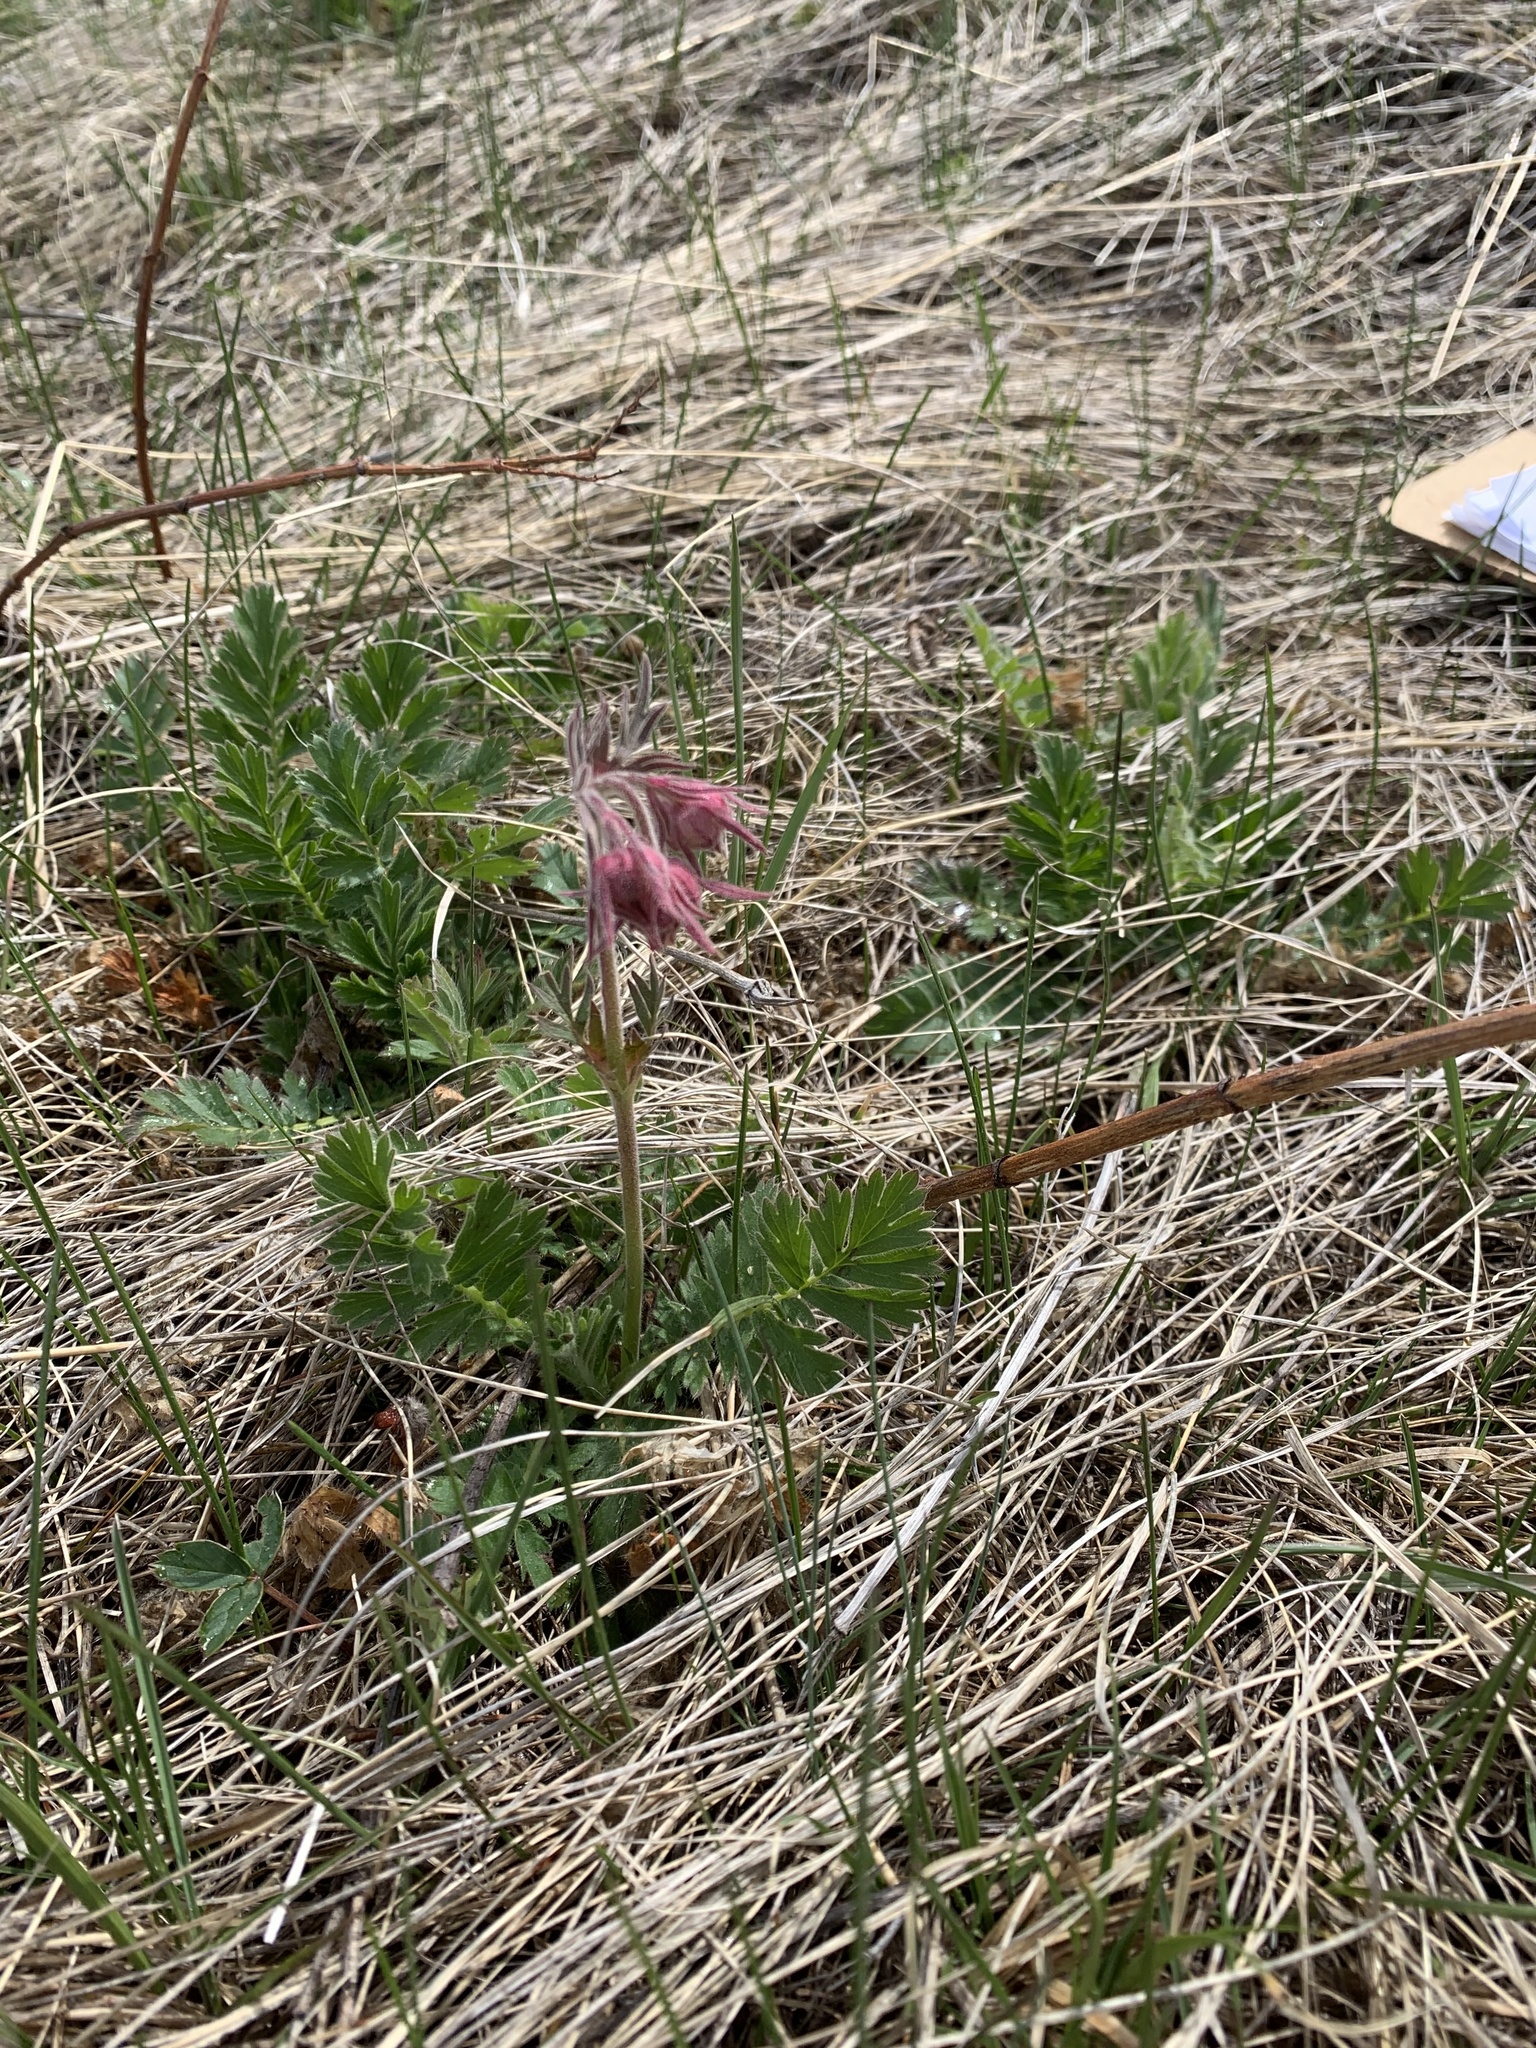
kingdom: Plantae
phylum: Tracheophyta
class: Magnoliopsida
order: Rosales
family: Rosaceae
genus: Geum
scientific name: Geum triflorum
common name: Old man's whiskers
